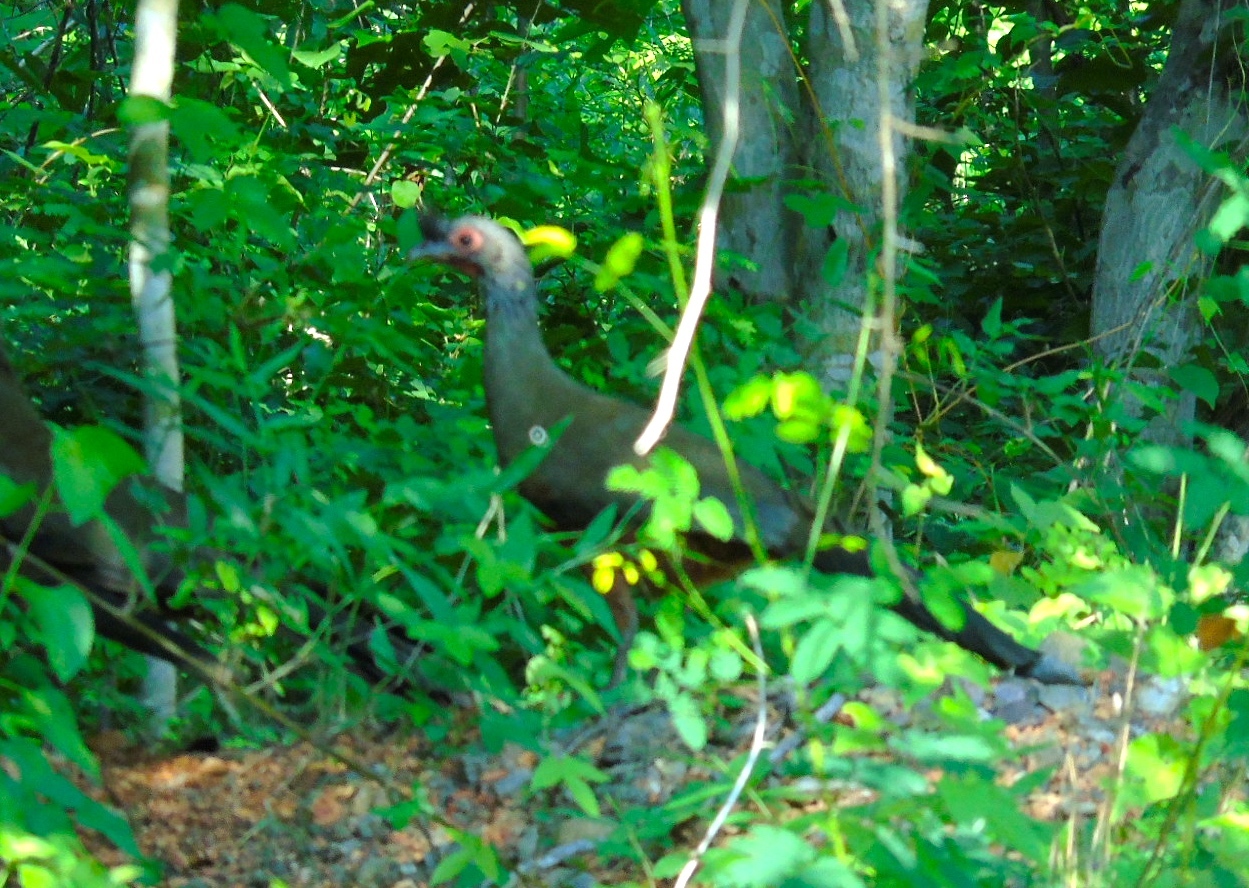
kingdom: Animalia
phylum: Chordata
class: Aves
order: Galliformes
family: Cracidae
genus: Ortalis
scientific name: Ortalis wagleri
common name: Rufous-bellied chachalaca
